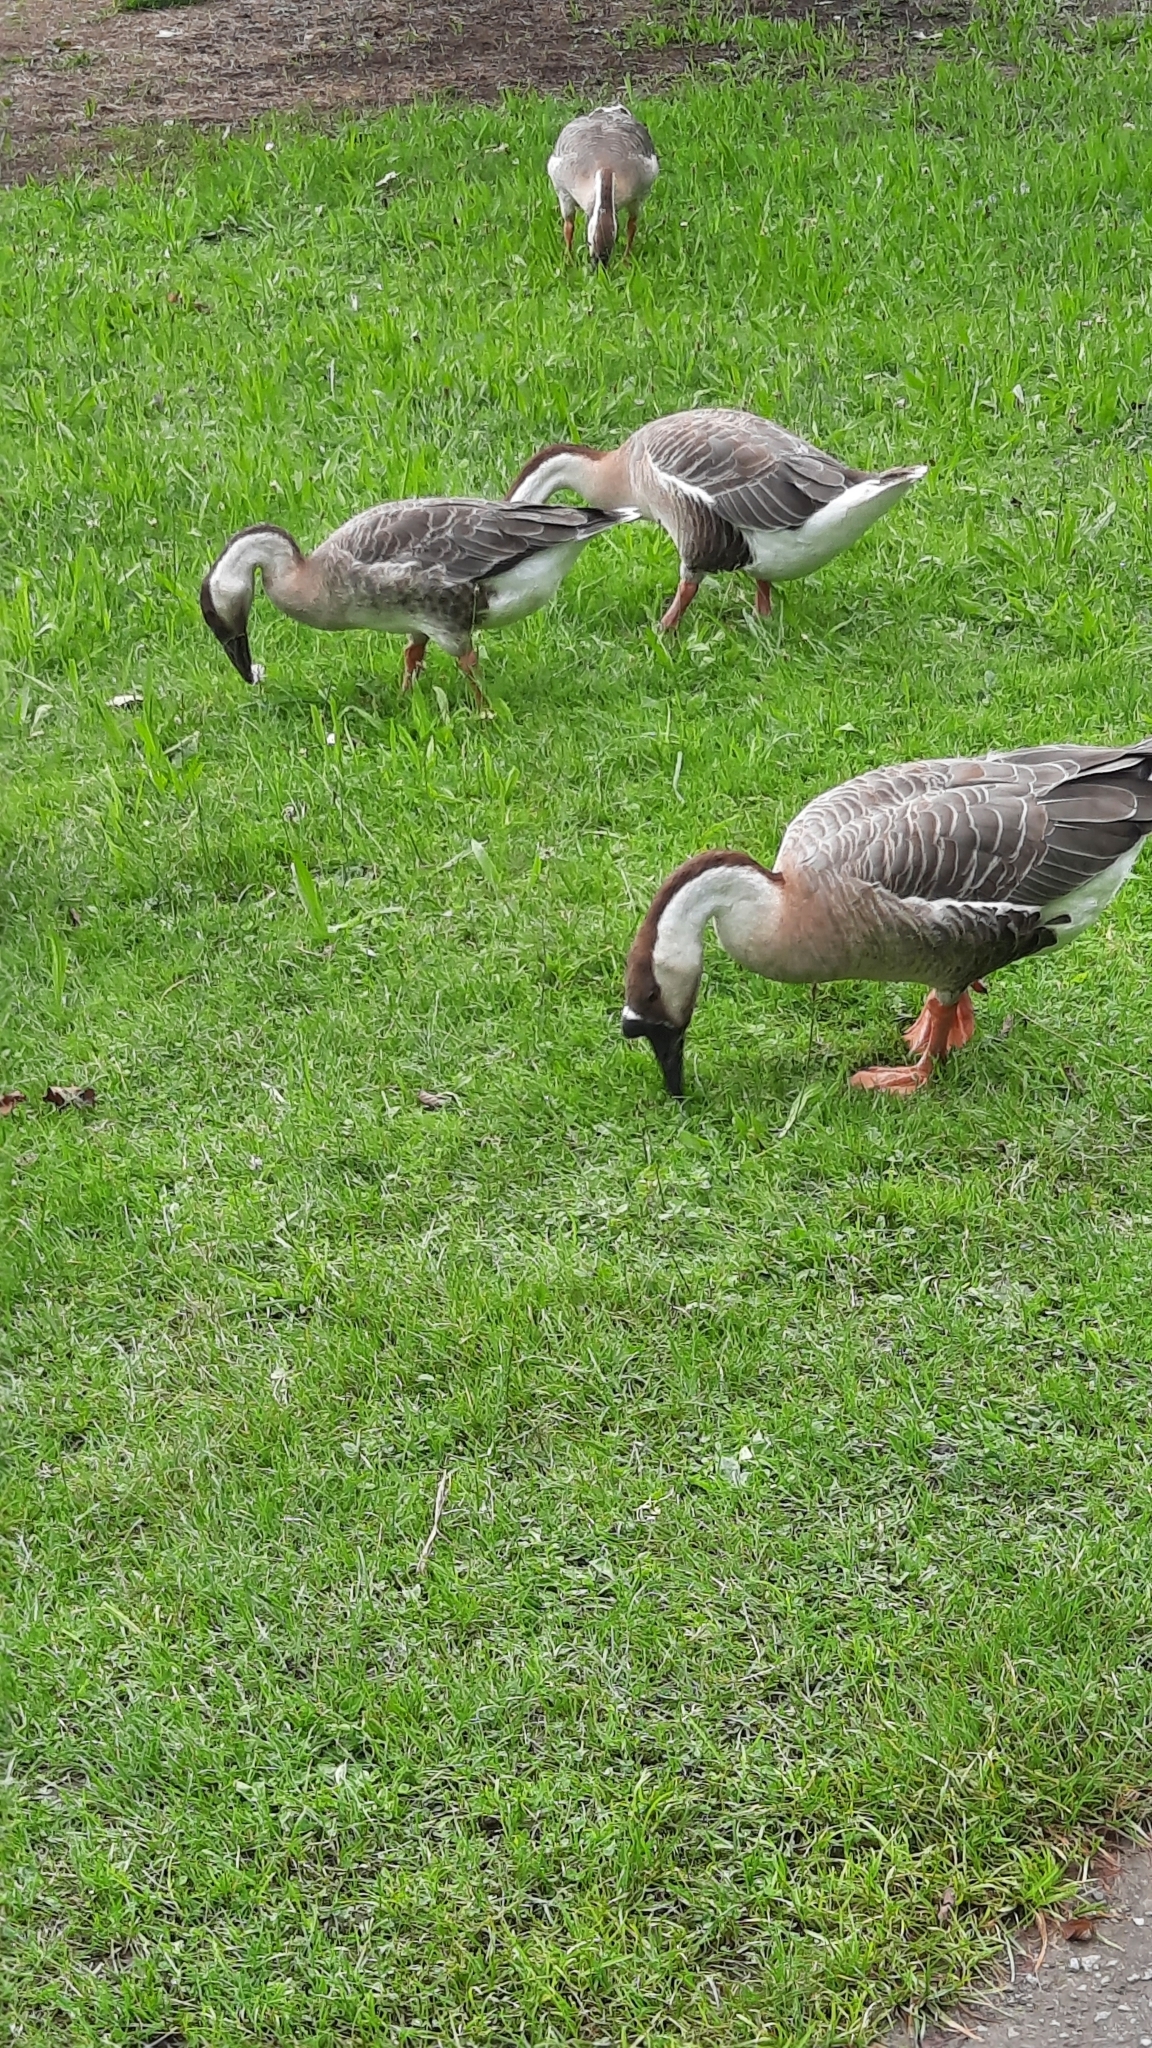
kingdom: Animalia
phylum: Chordata
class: Aves
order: Anseriformes
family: Anatidae
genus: Anser
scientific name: Anser cygnoides
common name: Swan goose
